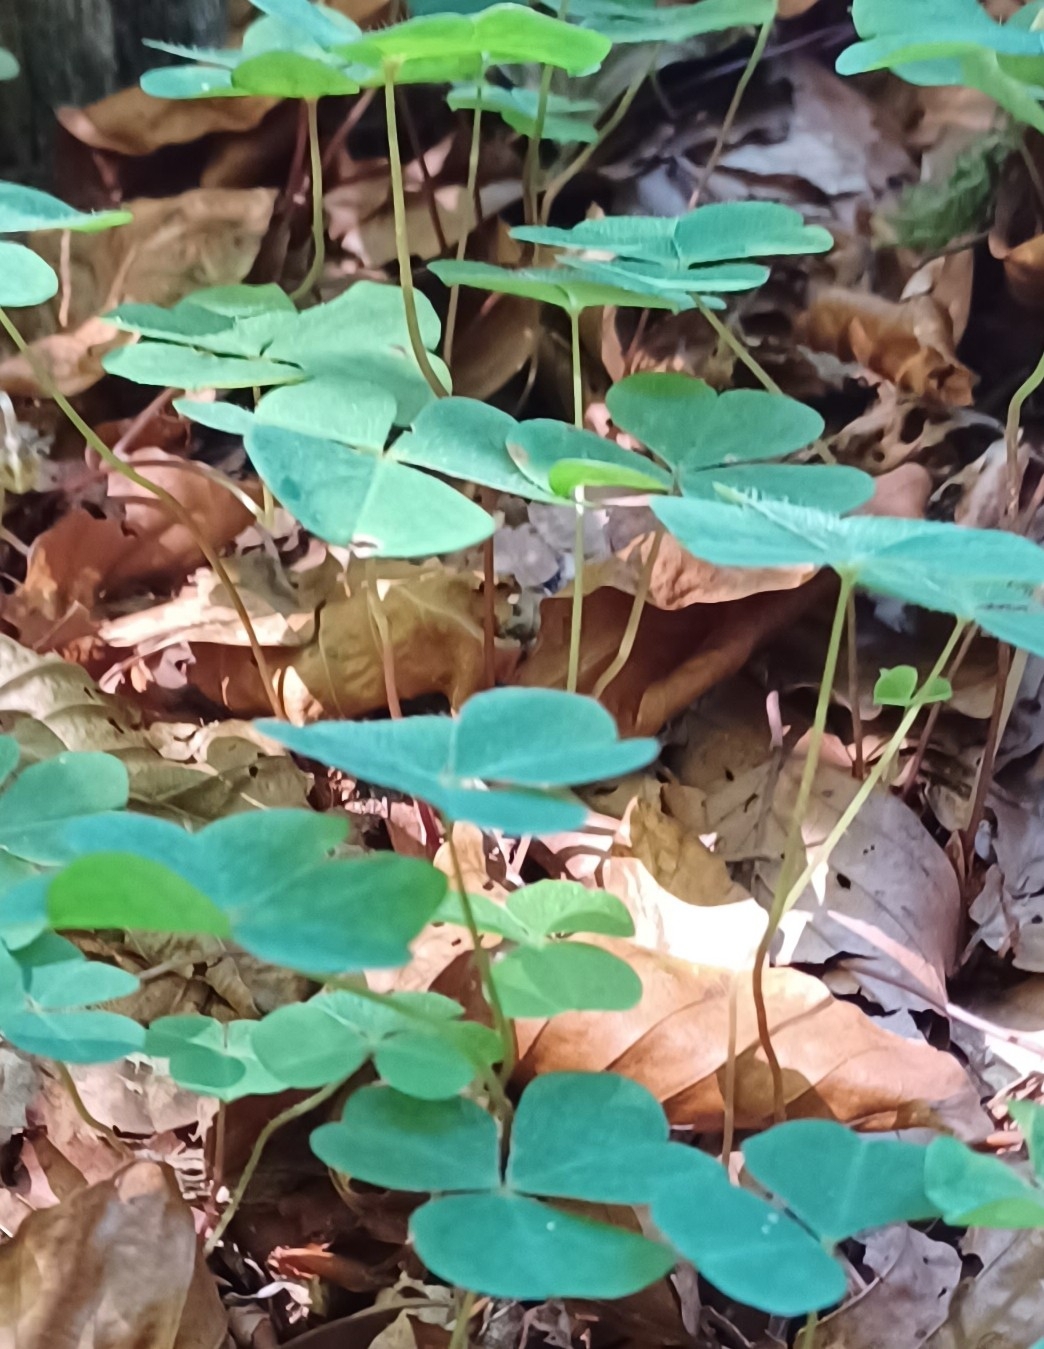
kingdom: Plantae
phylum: Tracheophyta
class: Magnoliopsida
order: Oxalidales
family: Oxalidaceae
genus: Oxalis
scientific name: Oxalis acetosella
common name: Wood-sorrel
